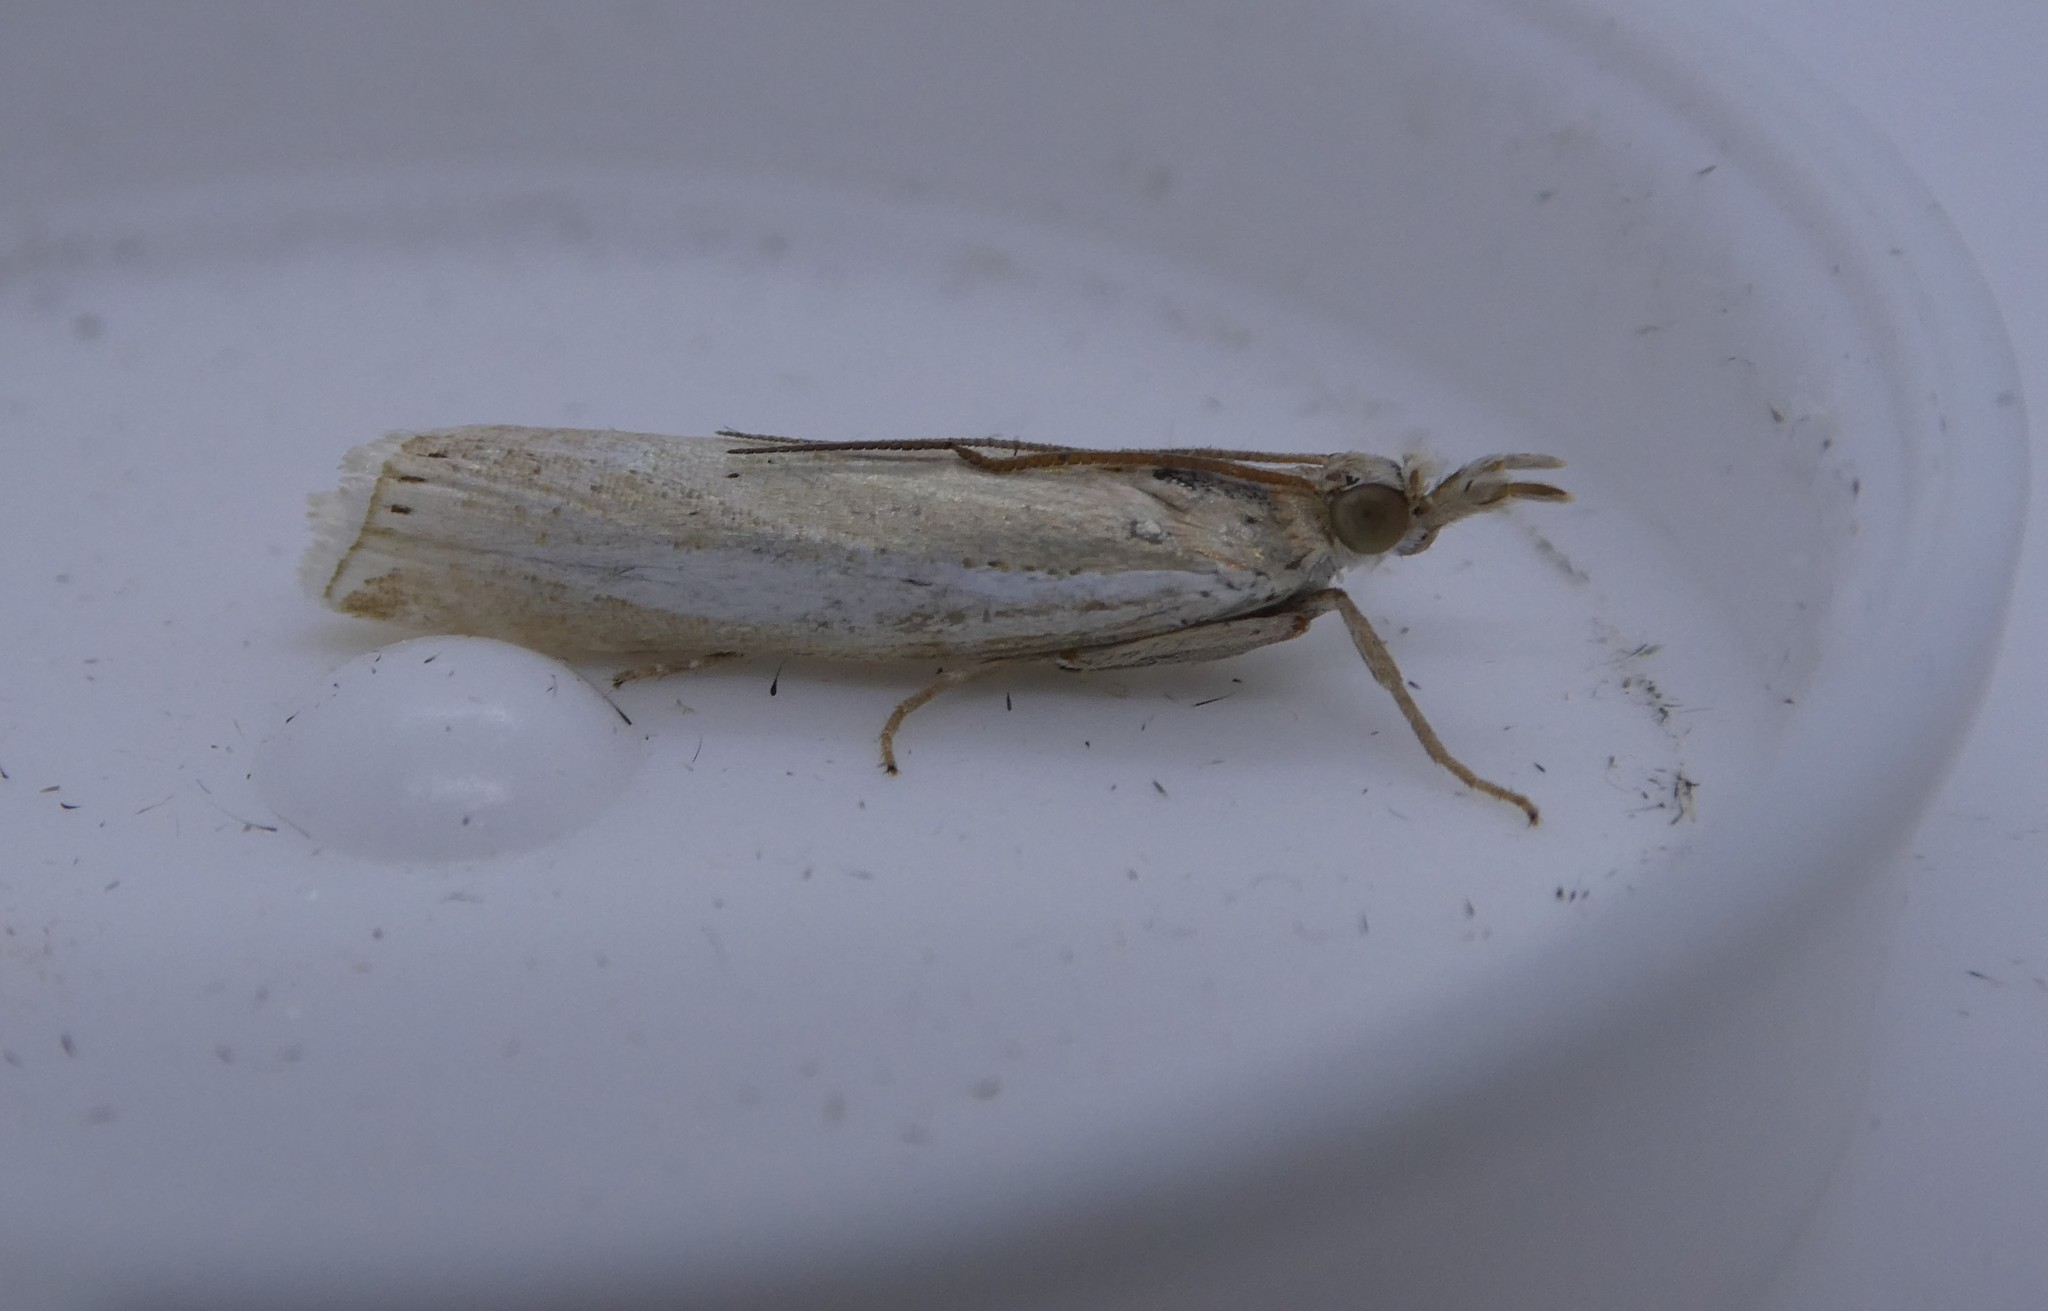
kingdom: Animalia
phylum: Arthropoda
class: Insecta
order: Lepidoptera
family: Crambidae
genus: Crambus
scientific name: Crambus praefectellus
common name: Common grass-veneer
